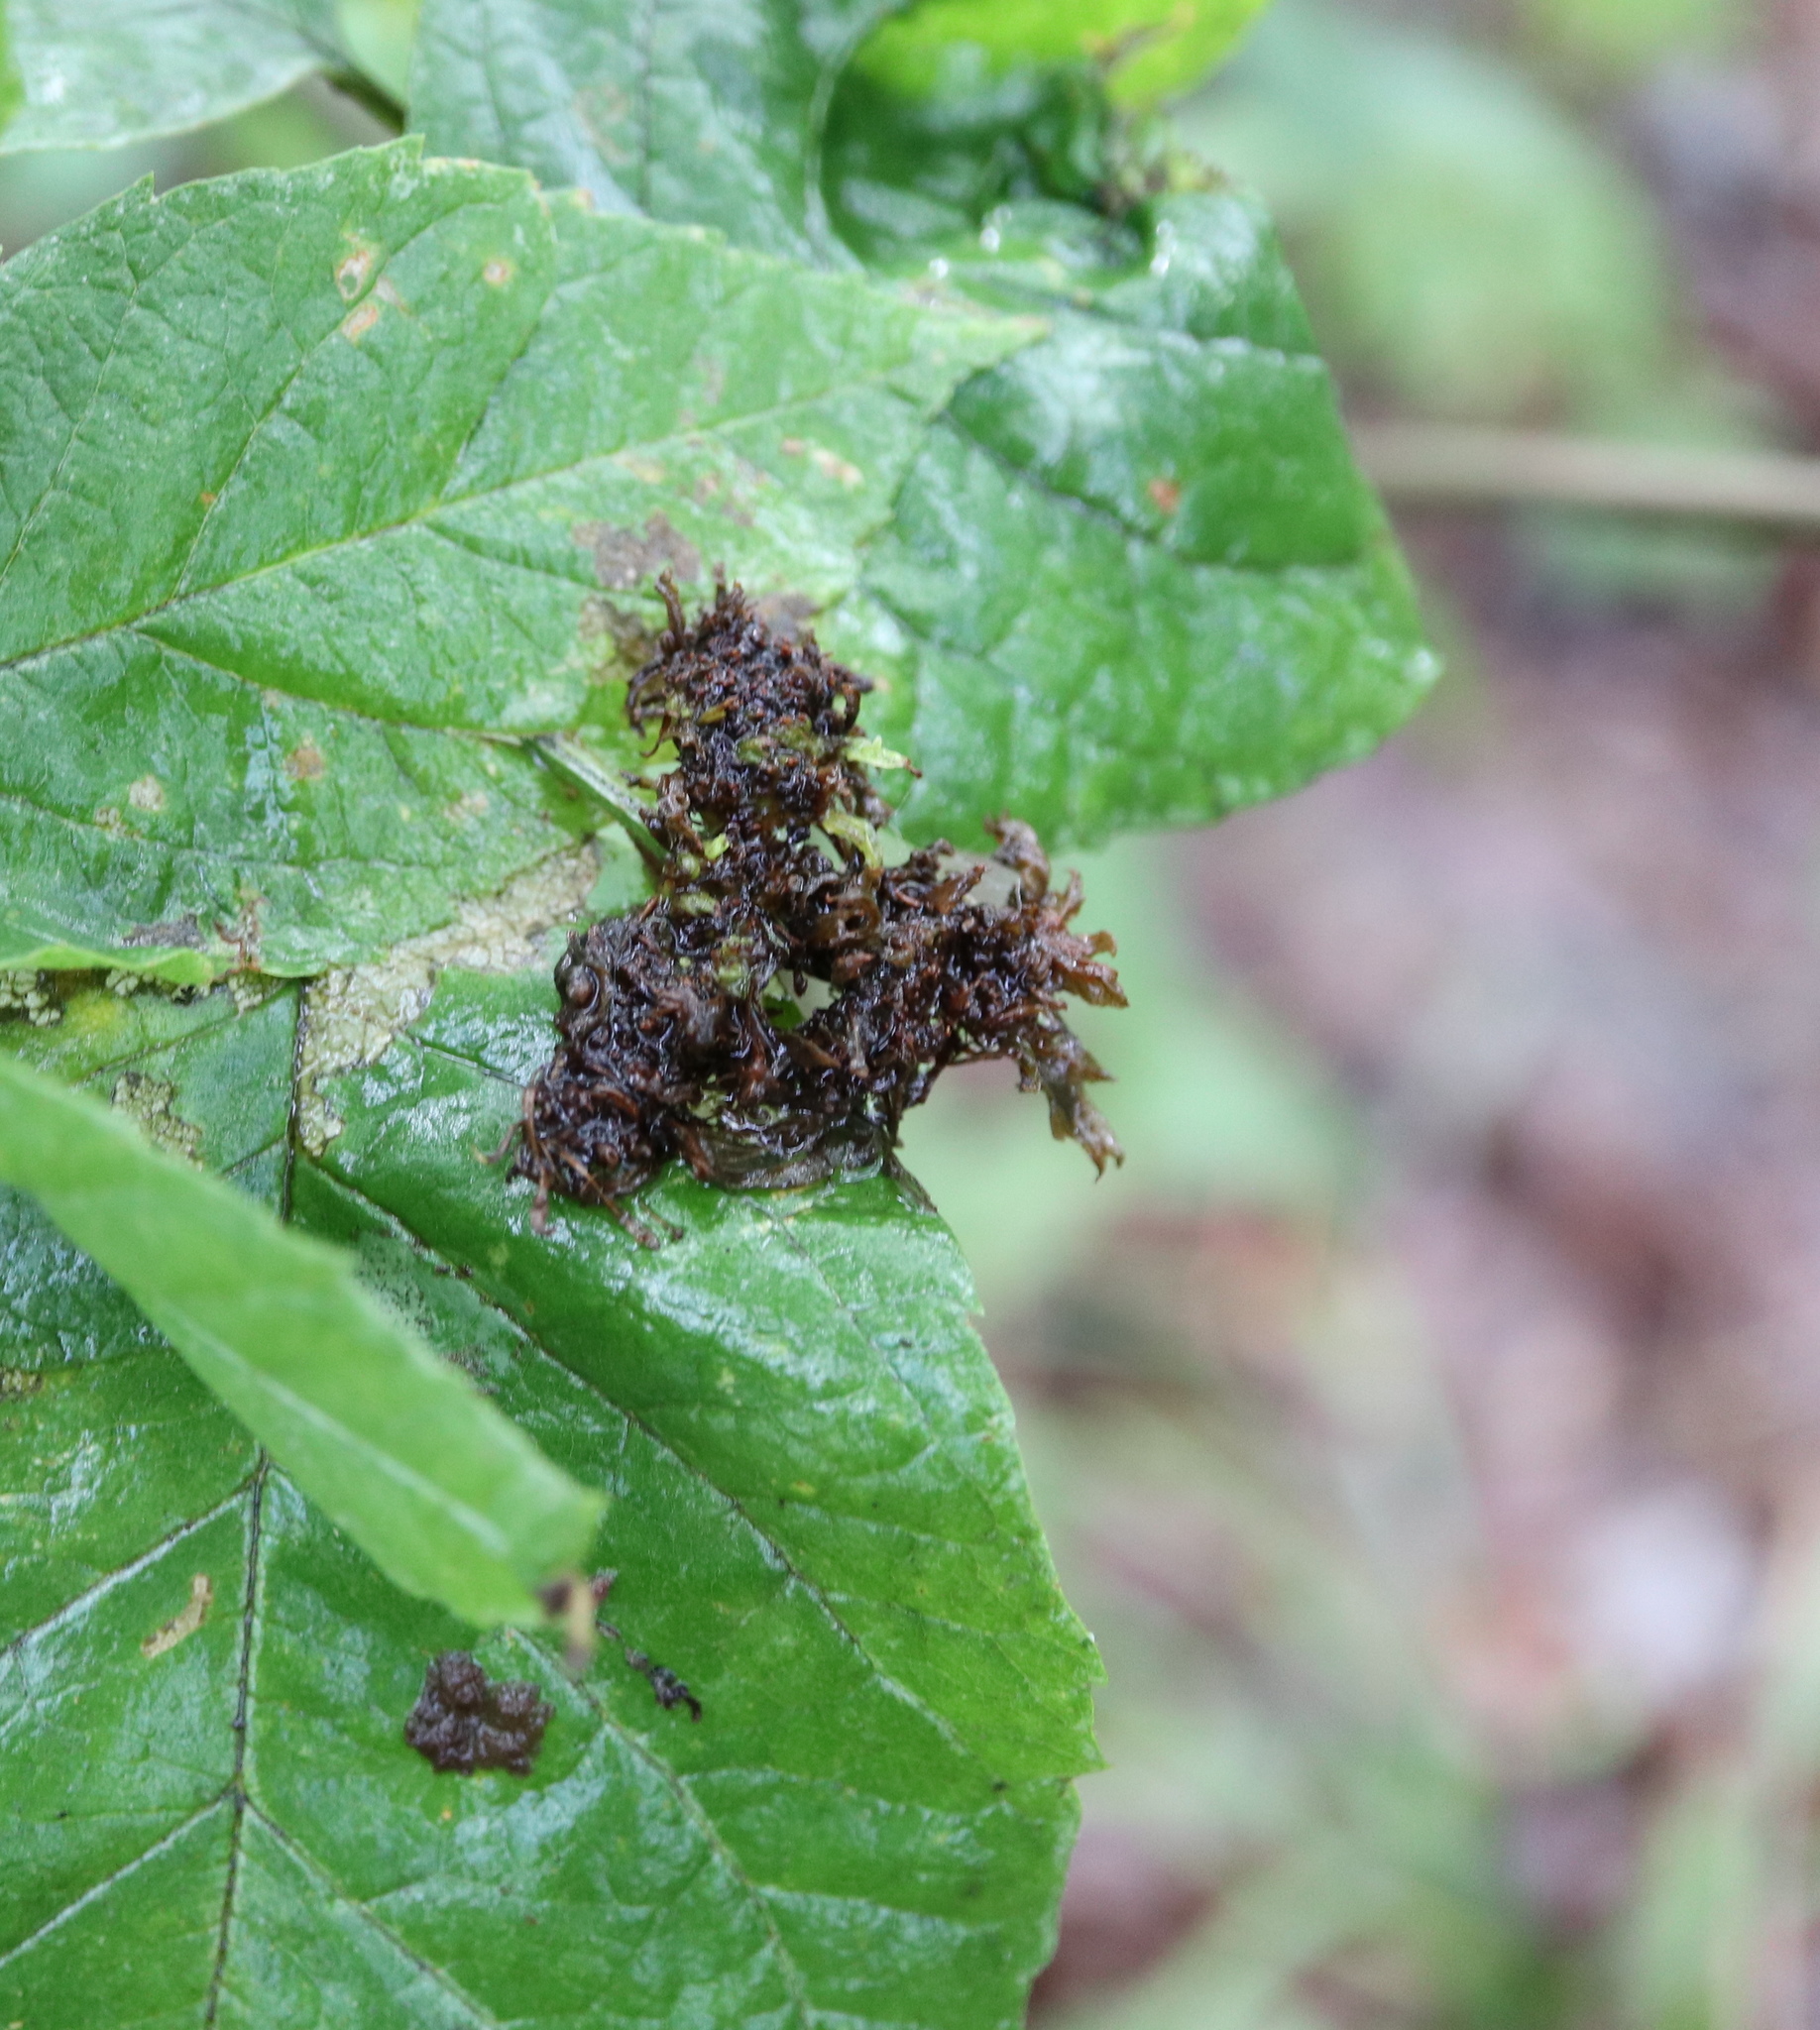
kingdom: Animalia
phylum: Arthropoda
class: Arachnida
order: Trombidiformes
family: Eriophyidae
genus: Aceria
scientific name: Aceria fraxiniflora
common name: Ash flower gall mite
